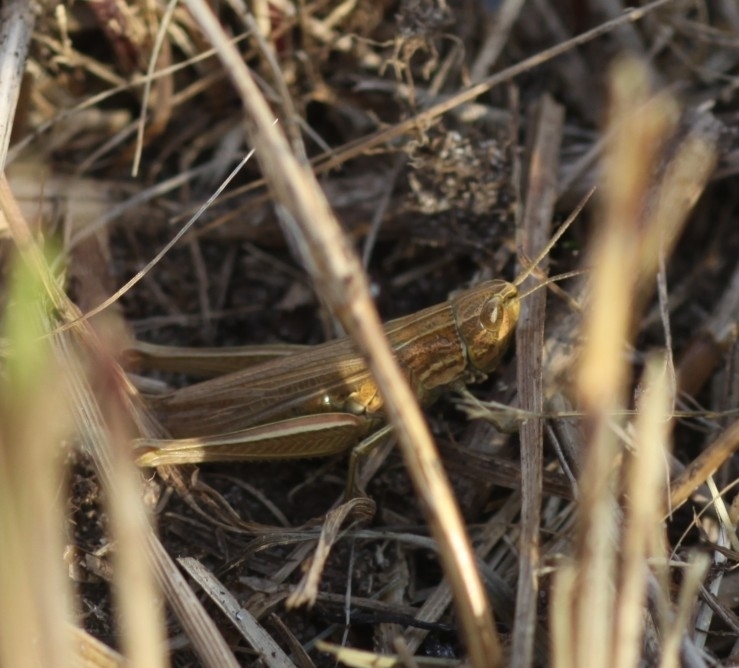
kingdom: Animalia
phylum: Arthropoda
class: Insecta
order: Orthoptera
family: Acrididae
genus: Chorthippus
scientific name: Chorthippus albomarginatus
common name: Lesser marsh grasshopper
